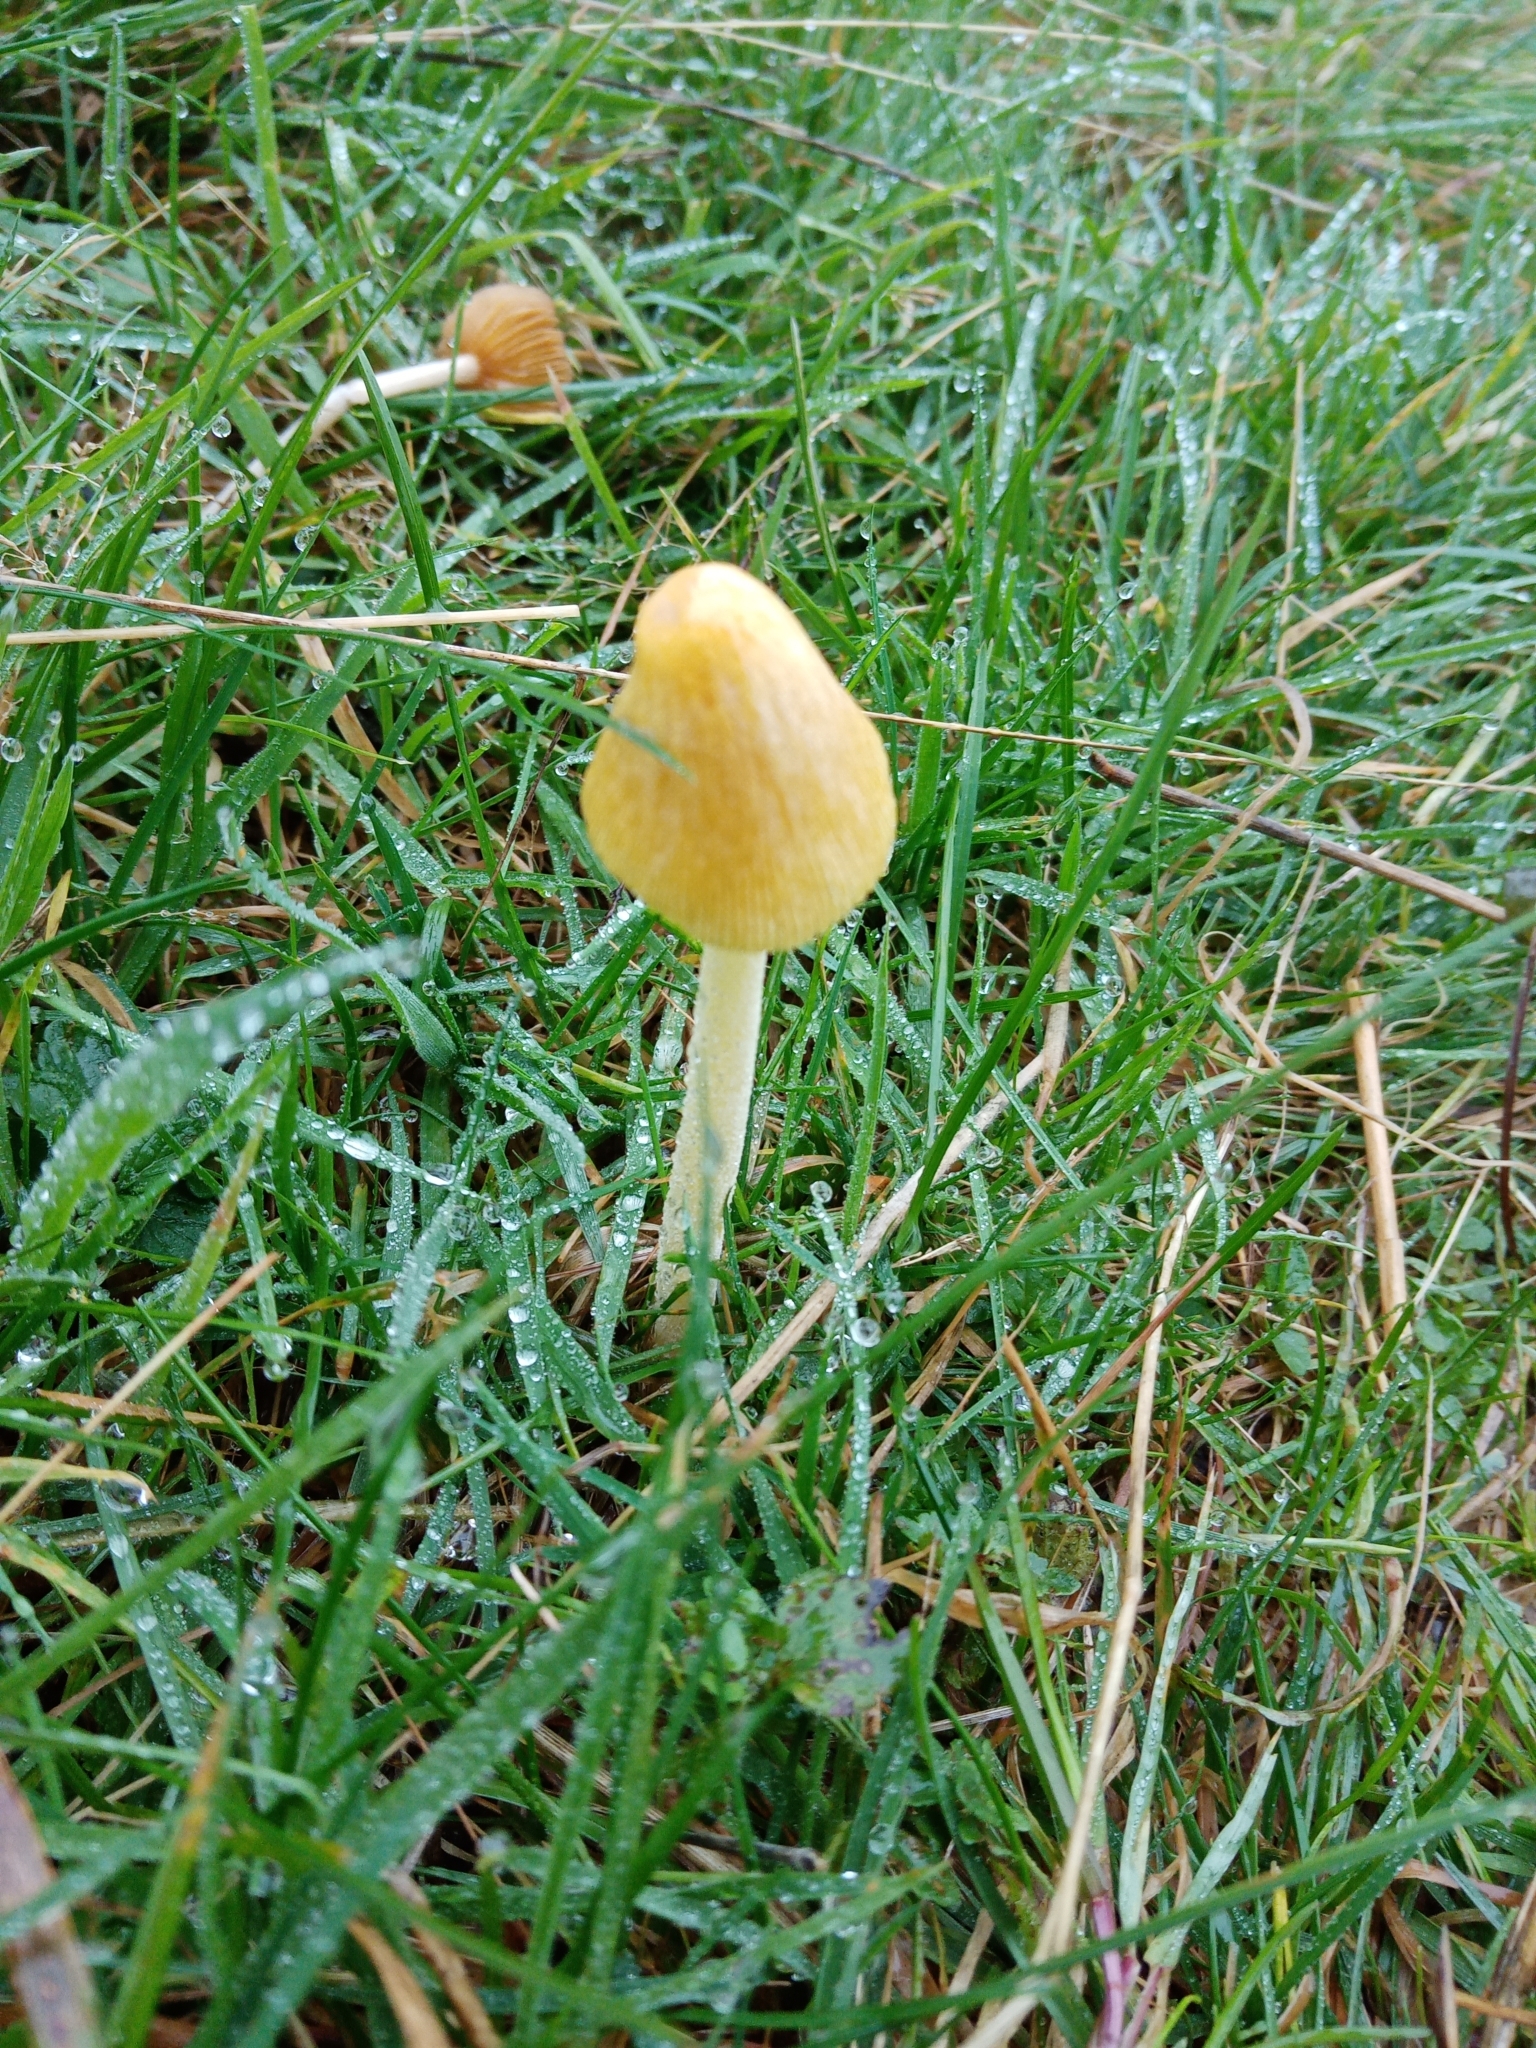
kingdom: Fungi
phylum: Basidiomycota
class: Agaricomycetes
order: Agaricales
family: Bolbitiaceae
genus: Bolbitius
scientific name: Bolbitius titubans
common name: Yellow fieldcap
